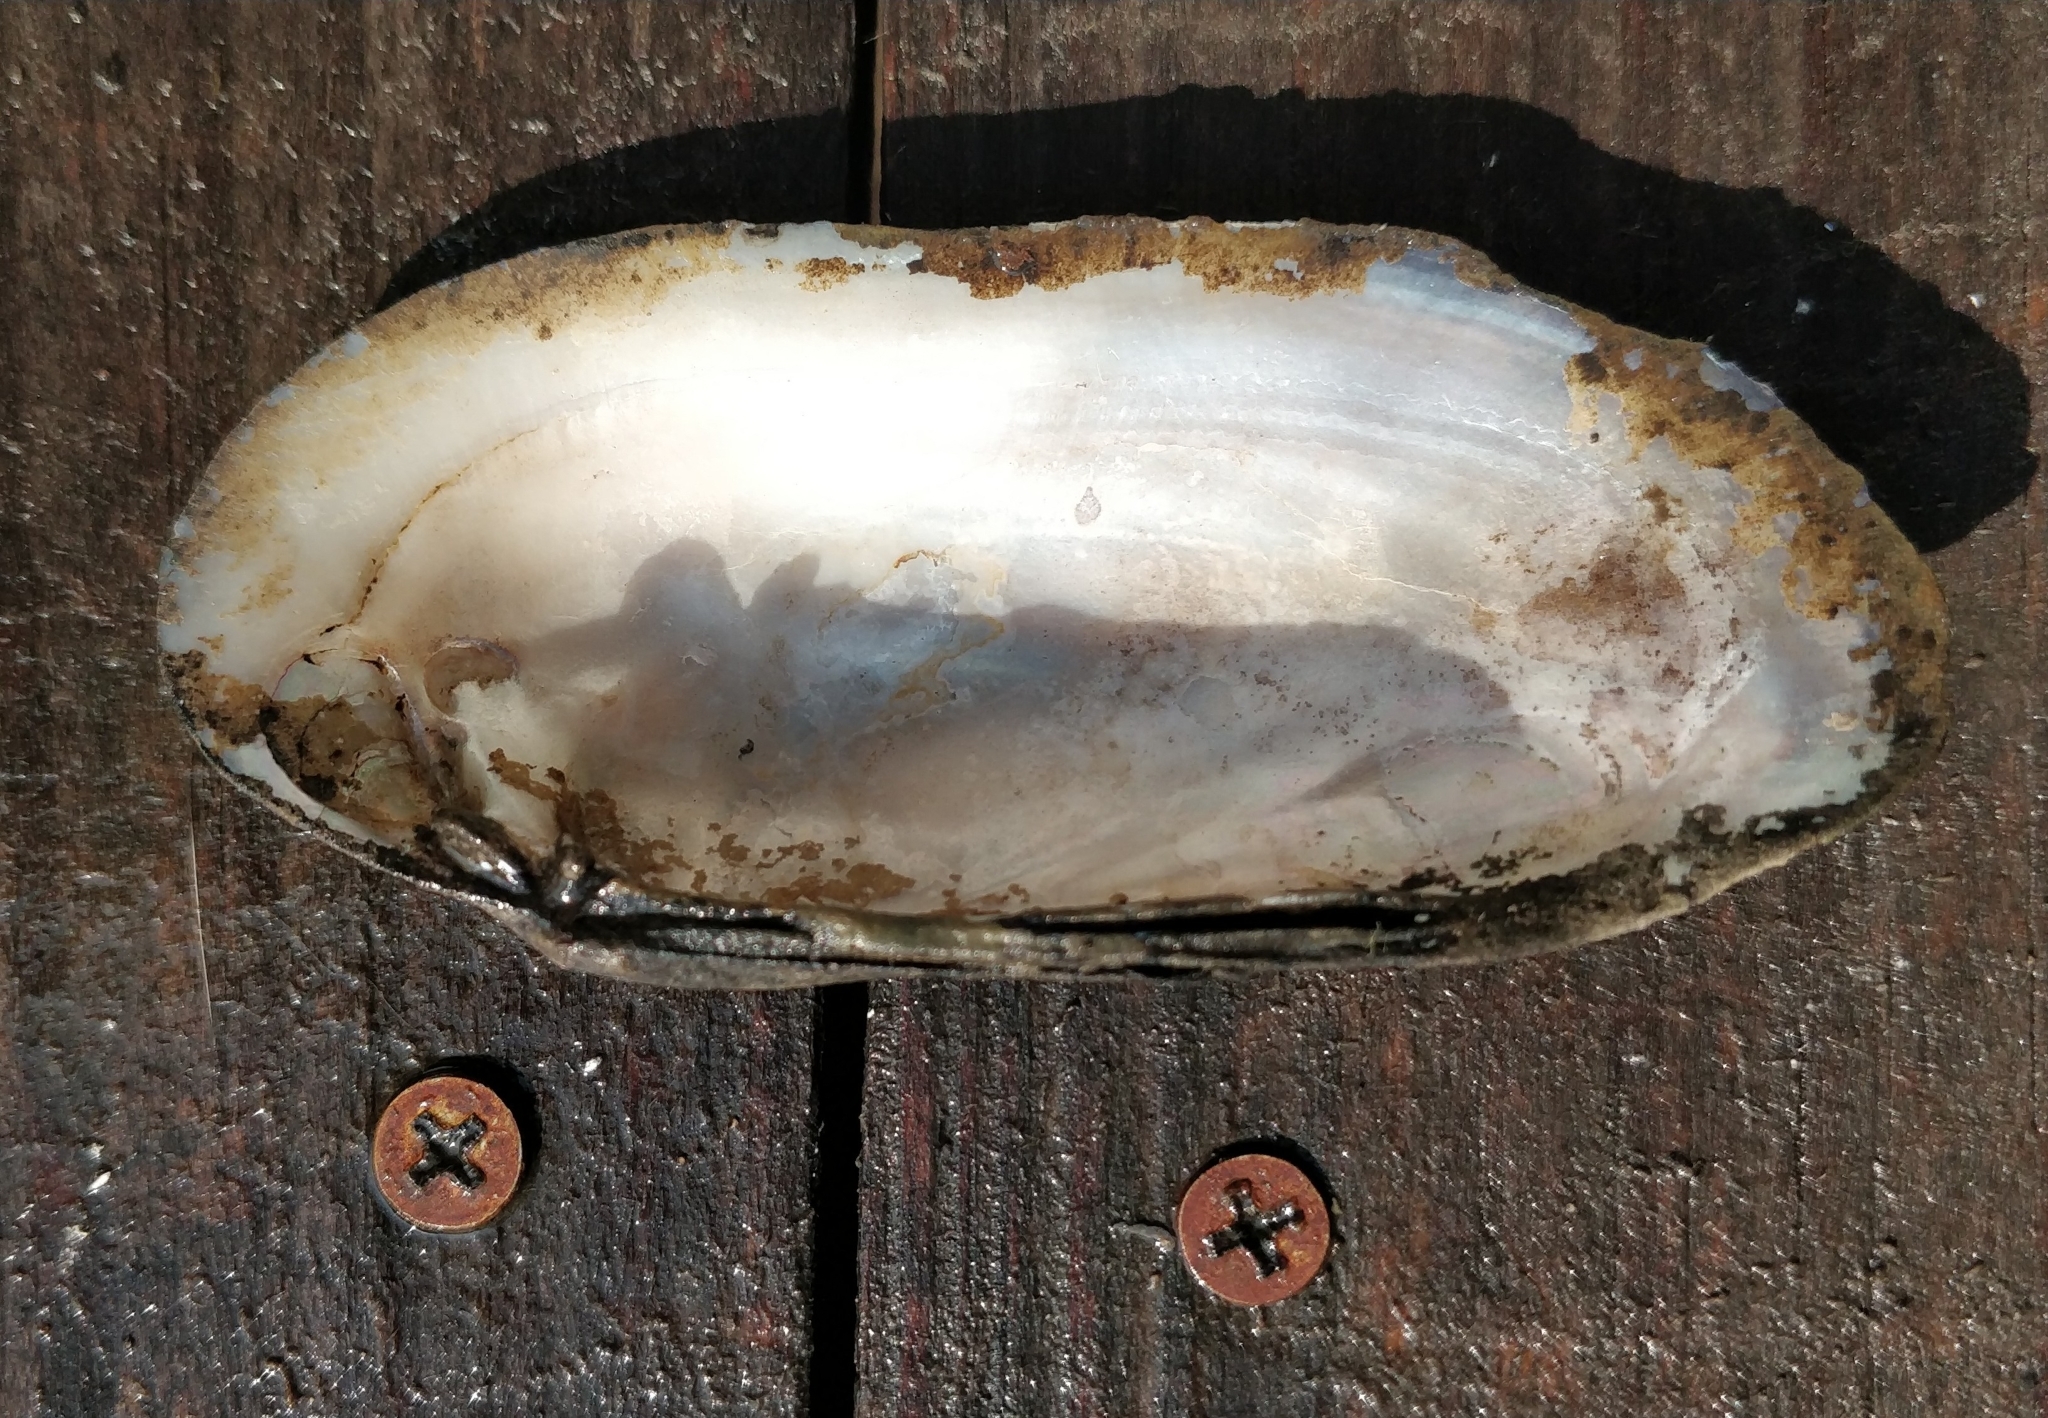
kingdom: Animalia
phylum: Mollusca
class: Bivalvia
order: Unionida
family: Unionidae
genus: Ligumia
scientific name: Ligumia recta
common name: Black sandshell
